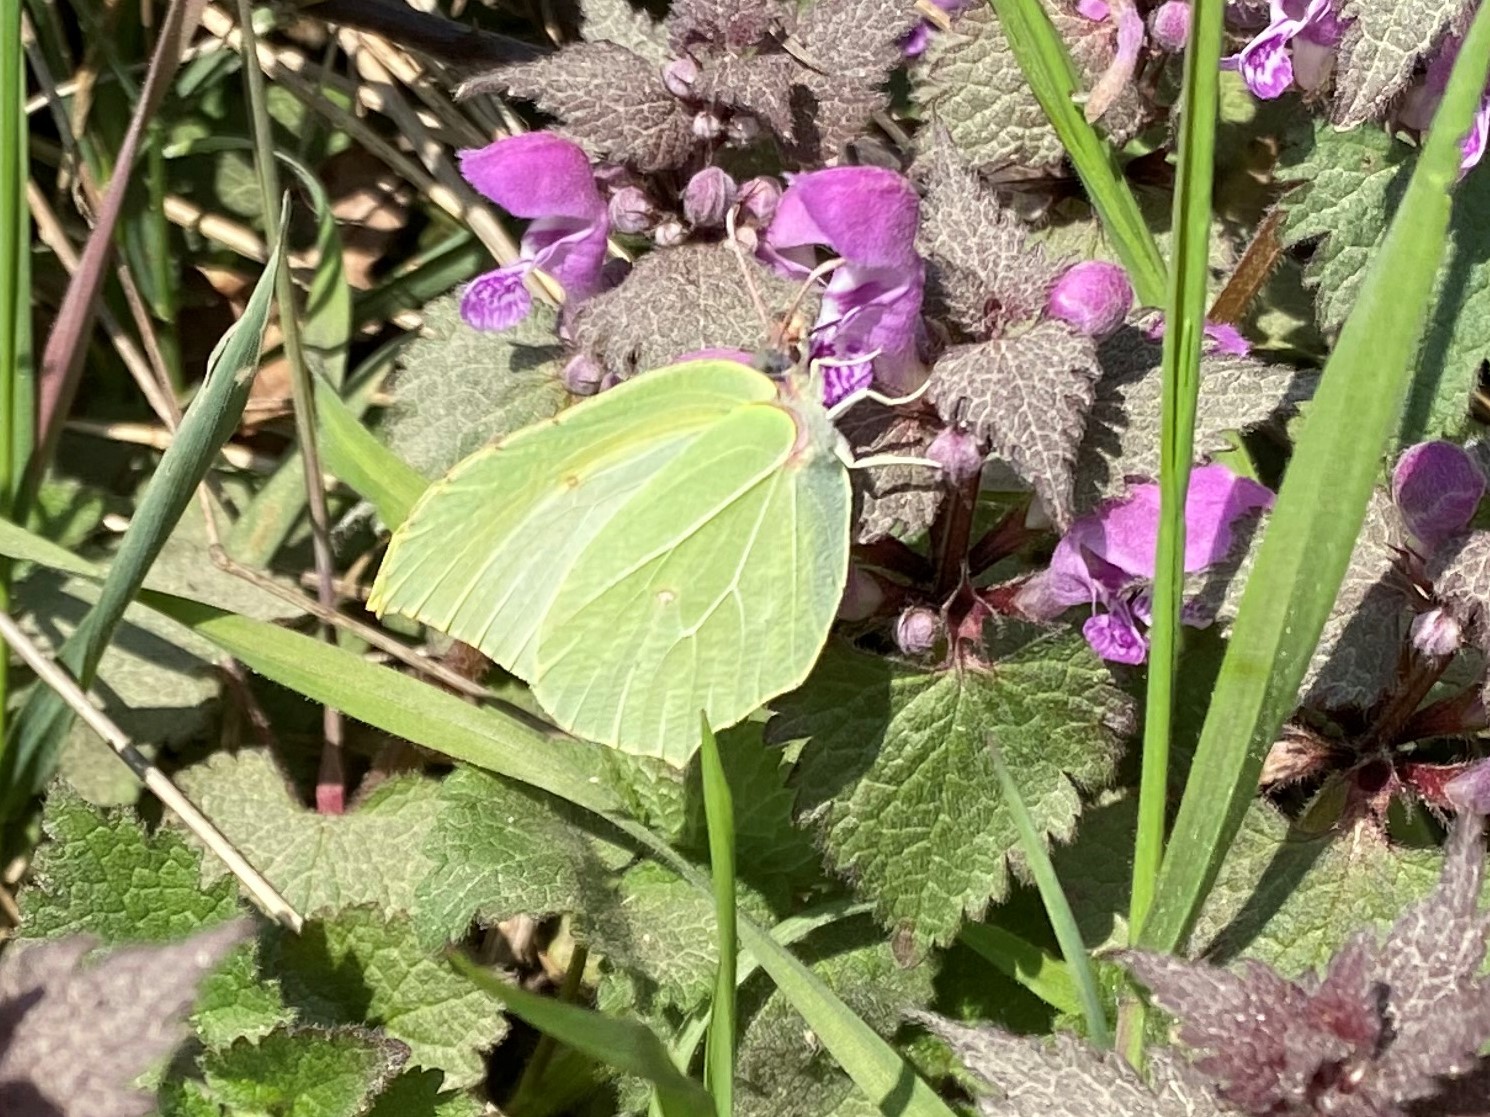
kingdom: Animalia
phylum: Arthropoda
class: Insecta
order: Lepidoptera
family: Pieridae
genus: Gonepteryx
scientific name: Gonepteryx rhamni
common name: Brimstone
